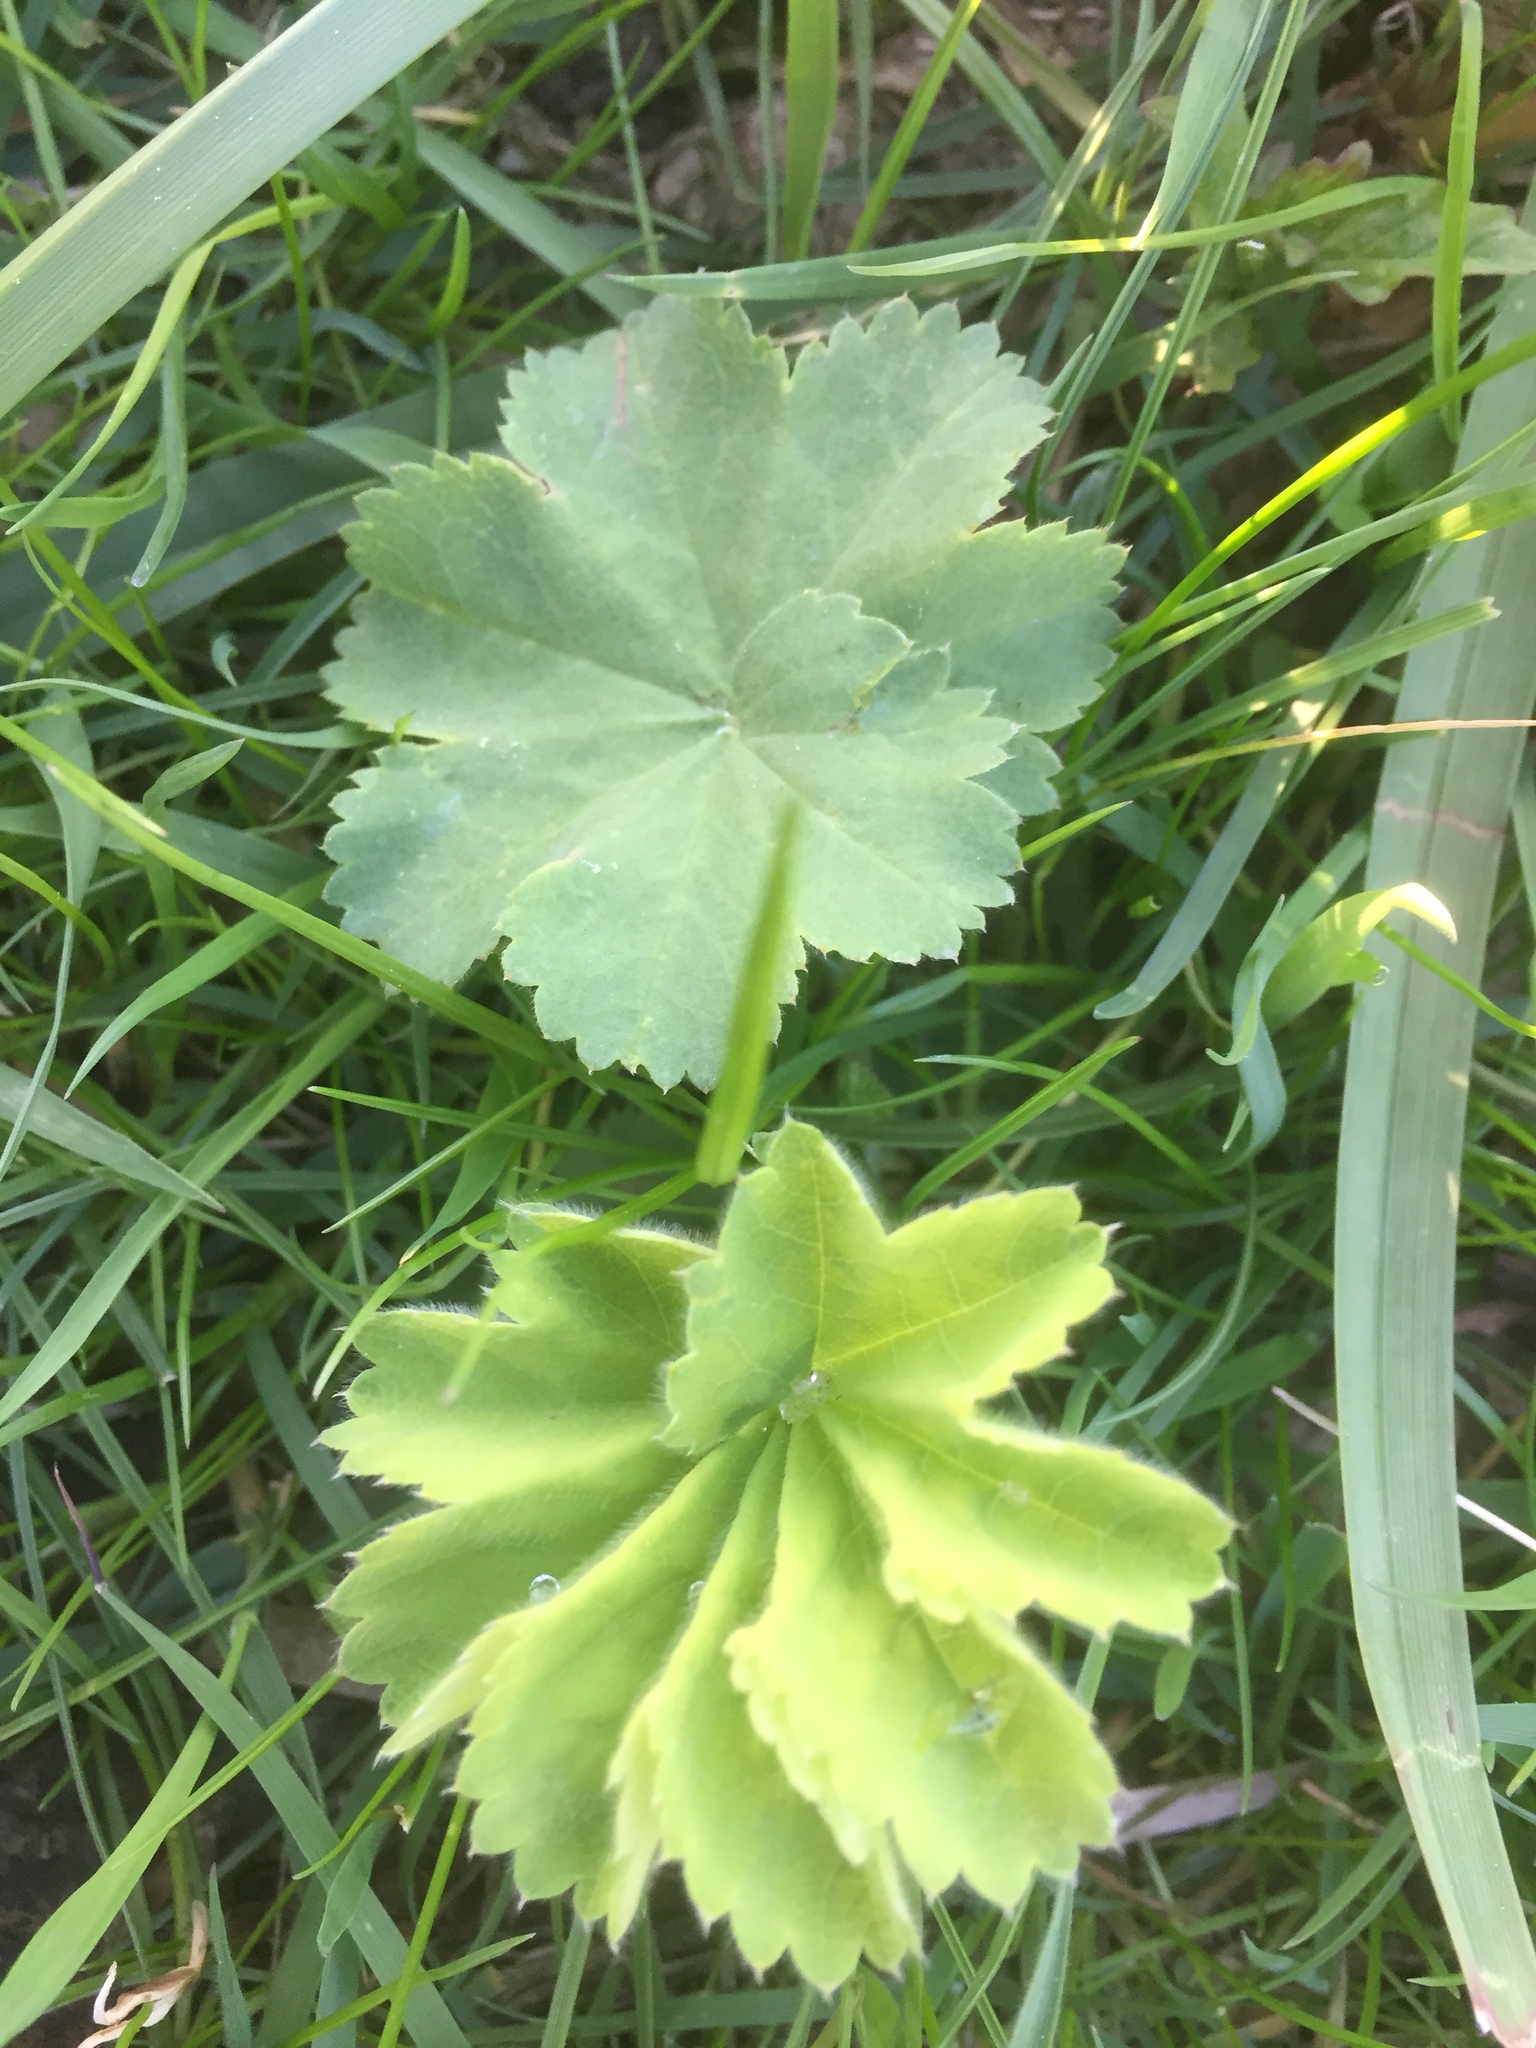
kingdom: Plantae
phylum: Tracheophyta
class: Magnoliopsida
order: Rosales
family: Rosaceae
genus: Alchemilla
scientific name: Alchemilla mollis
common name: Lady's-mantle
